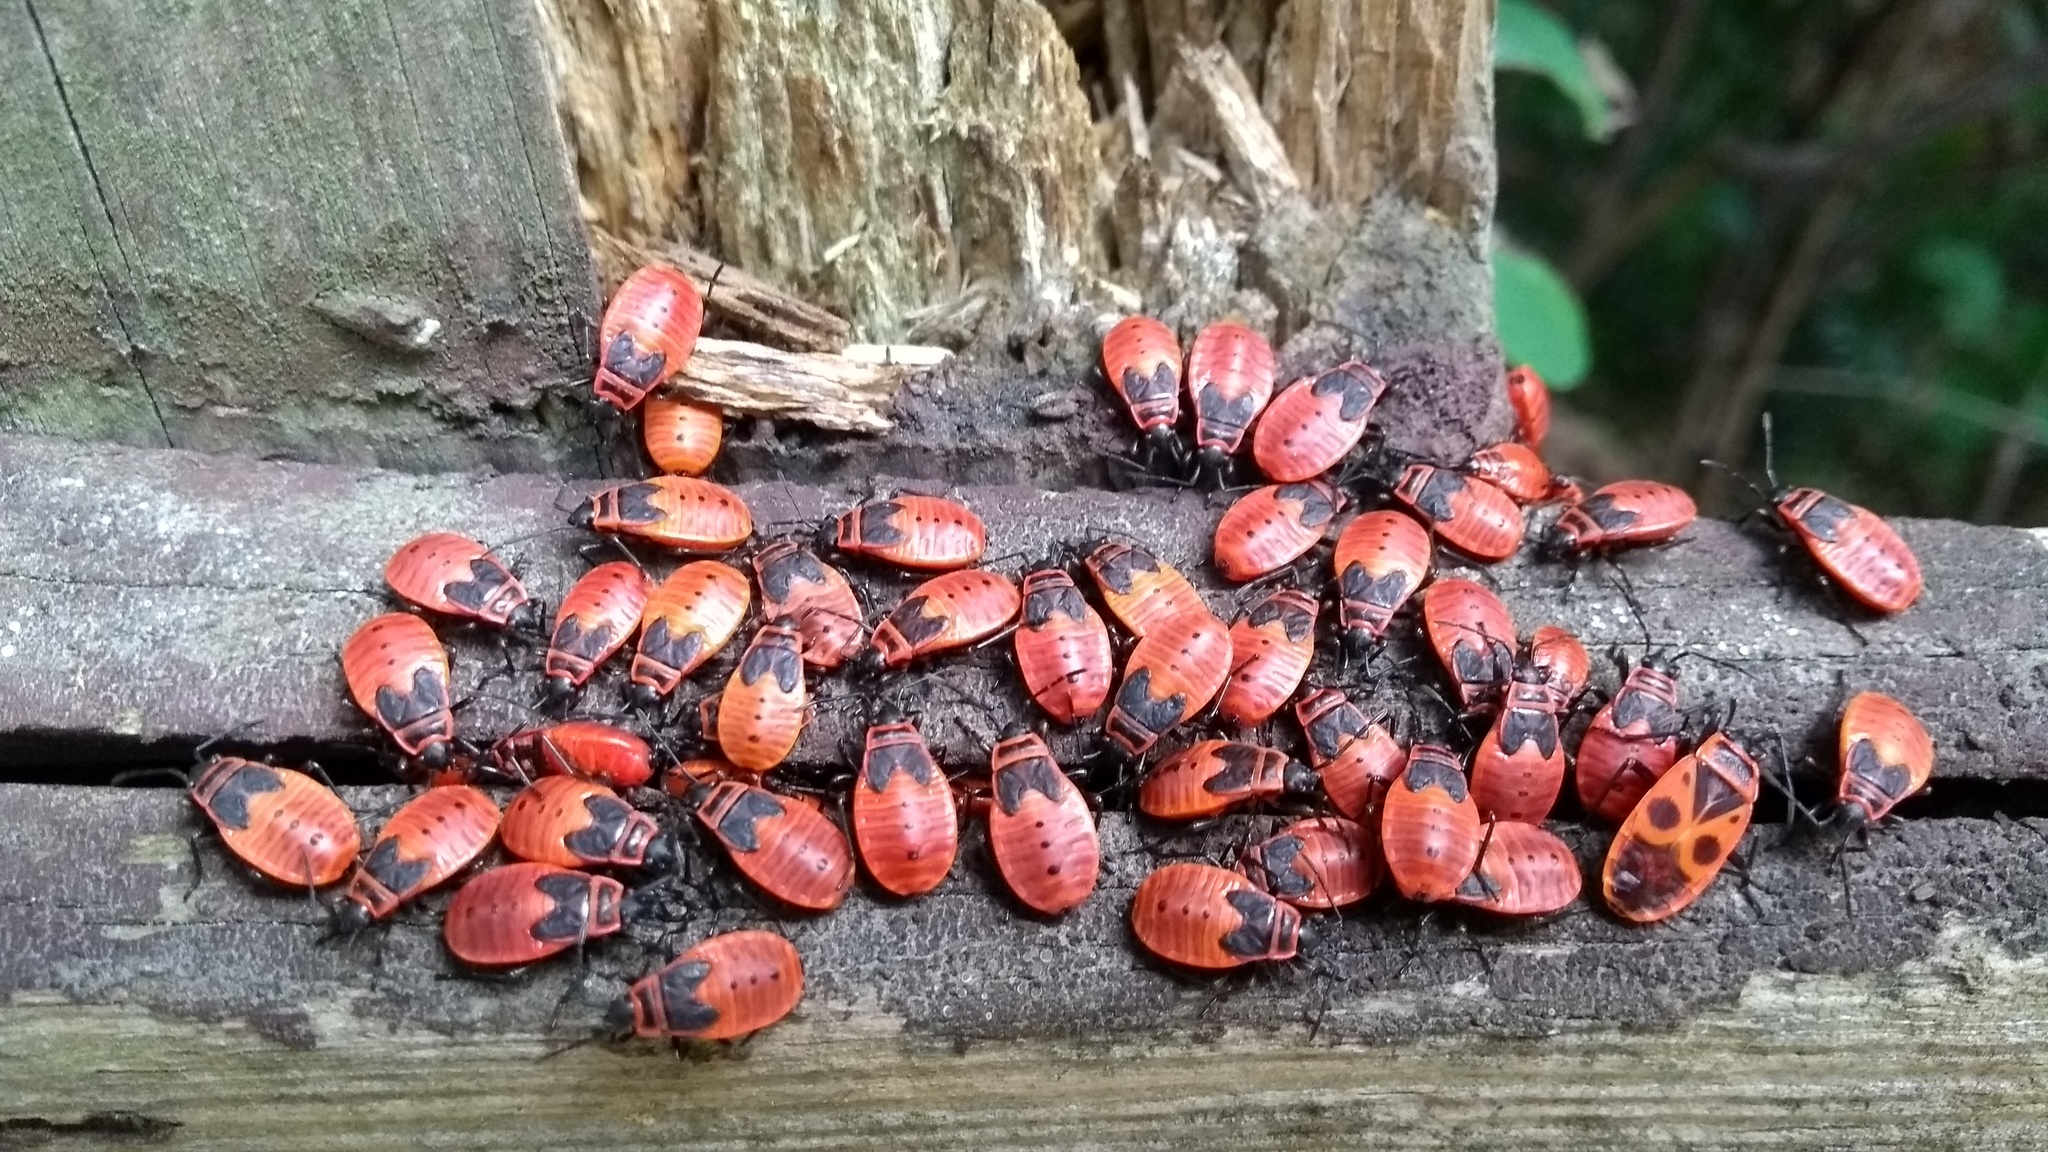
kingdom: Animalia
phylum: Arthropoda
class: Insecta
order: Hemiptera
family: Pyrrhocoridae
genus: Pyrrhocoris
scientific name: Pyrrhocoris apterus
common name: Firebug
